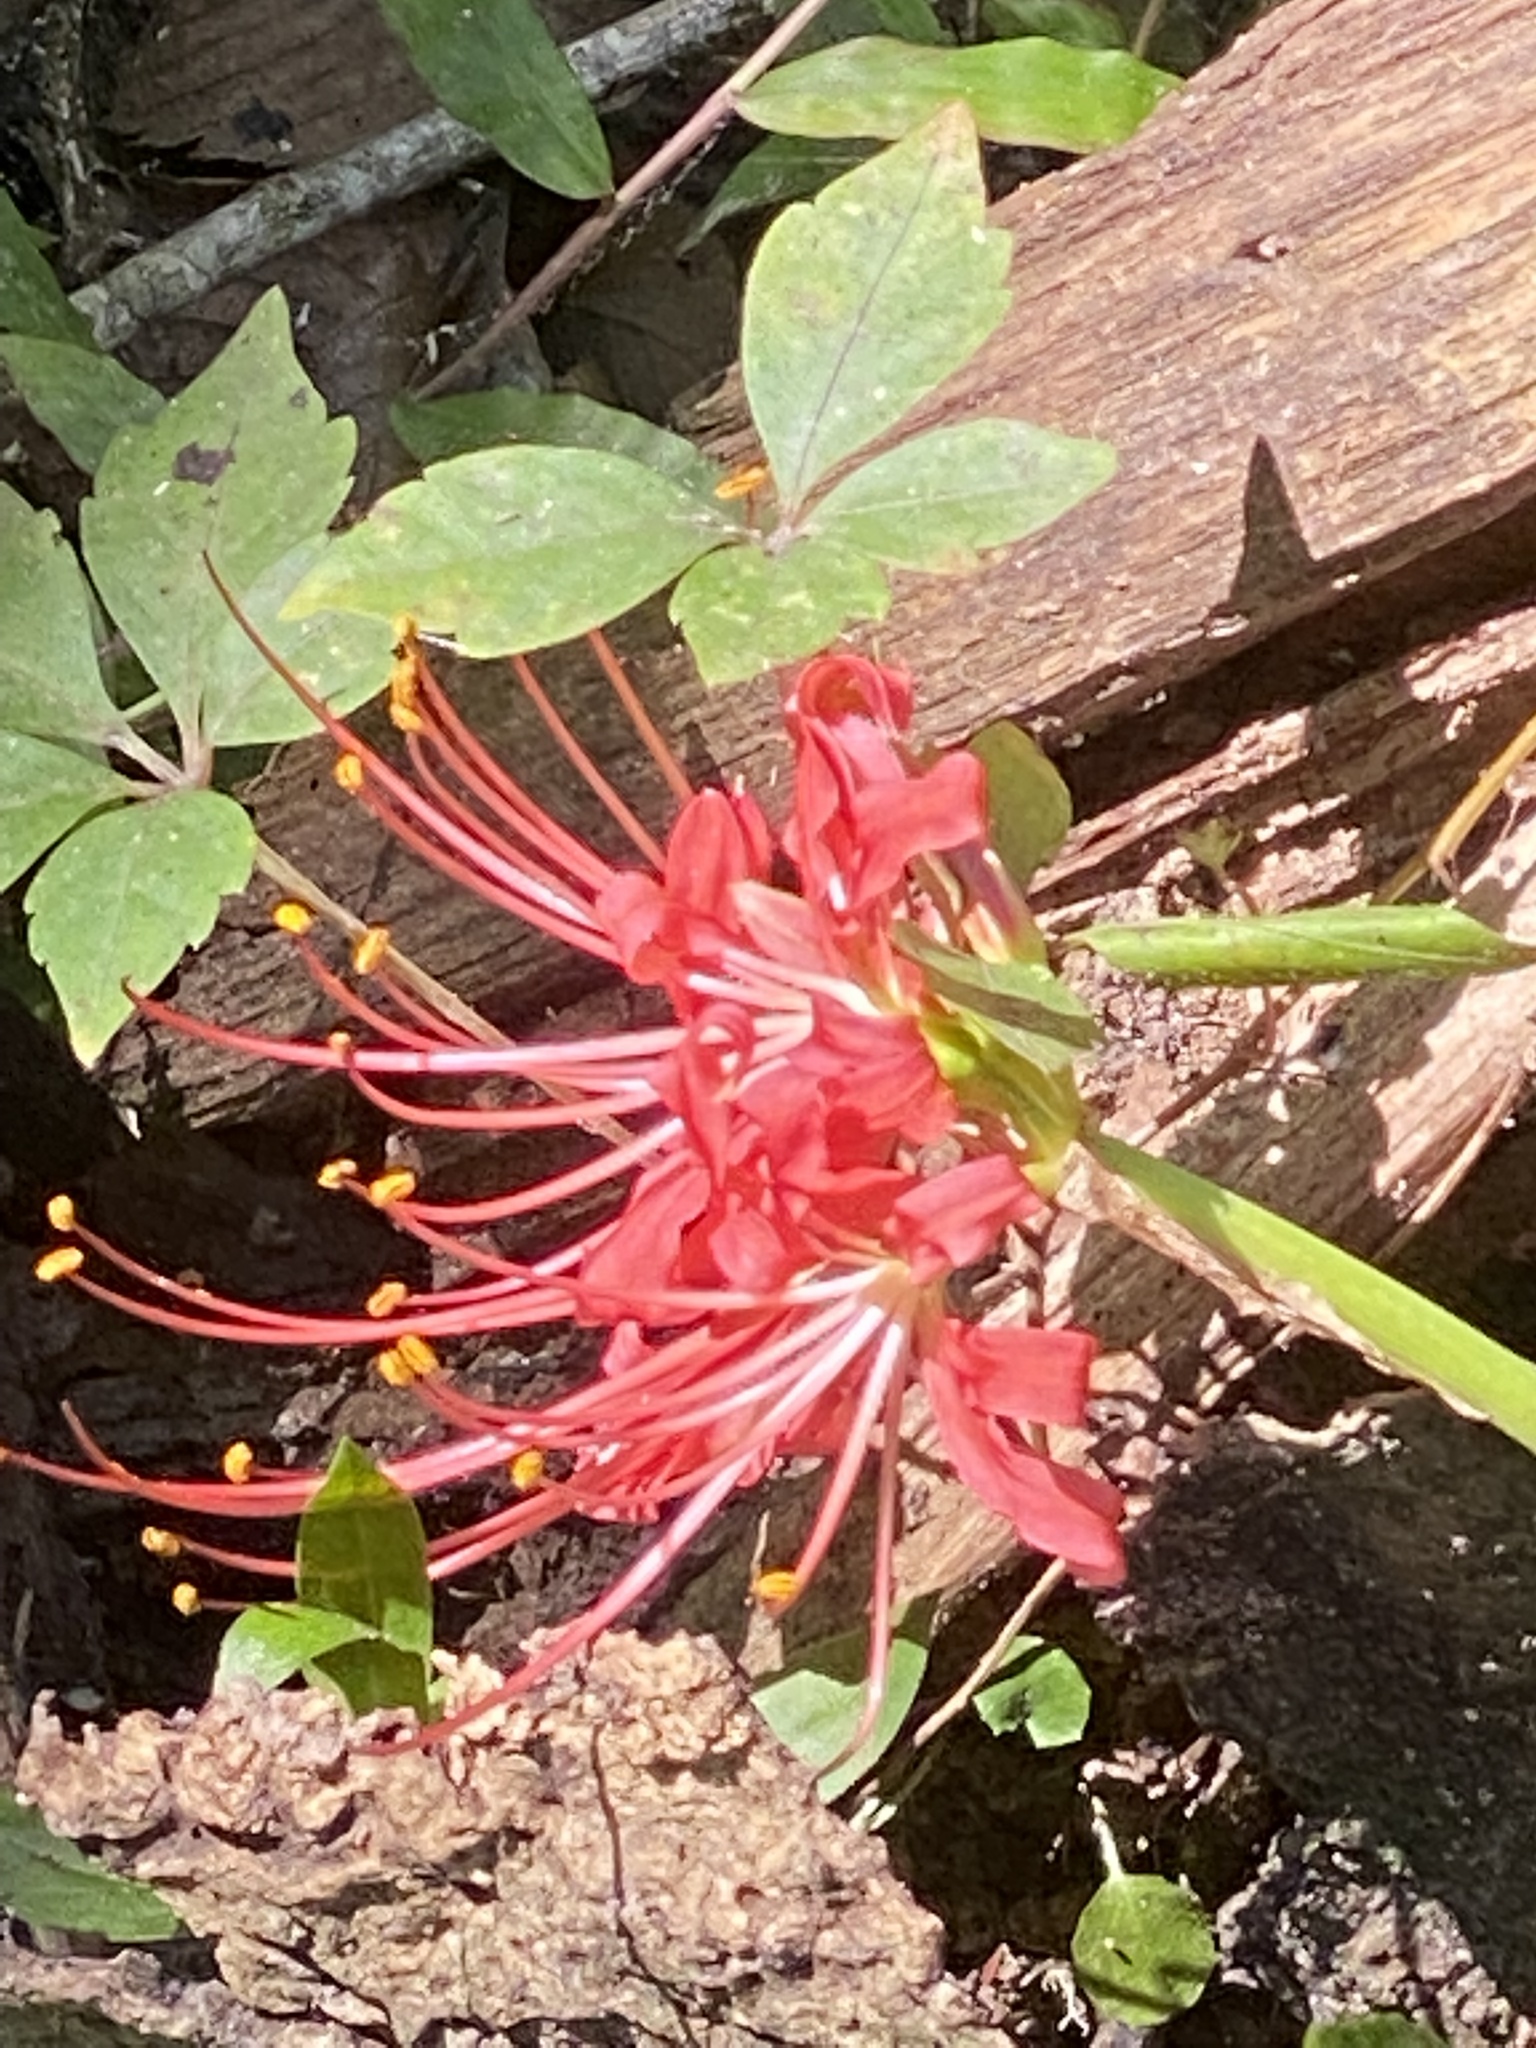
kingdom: Plantae
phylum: Tracheophyta
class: Liliopsida
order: Asparagales
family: Amaryllidaceae
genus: Lycoris
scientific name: Lycoris radiata
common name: Red spider lily
